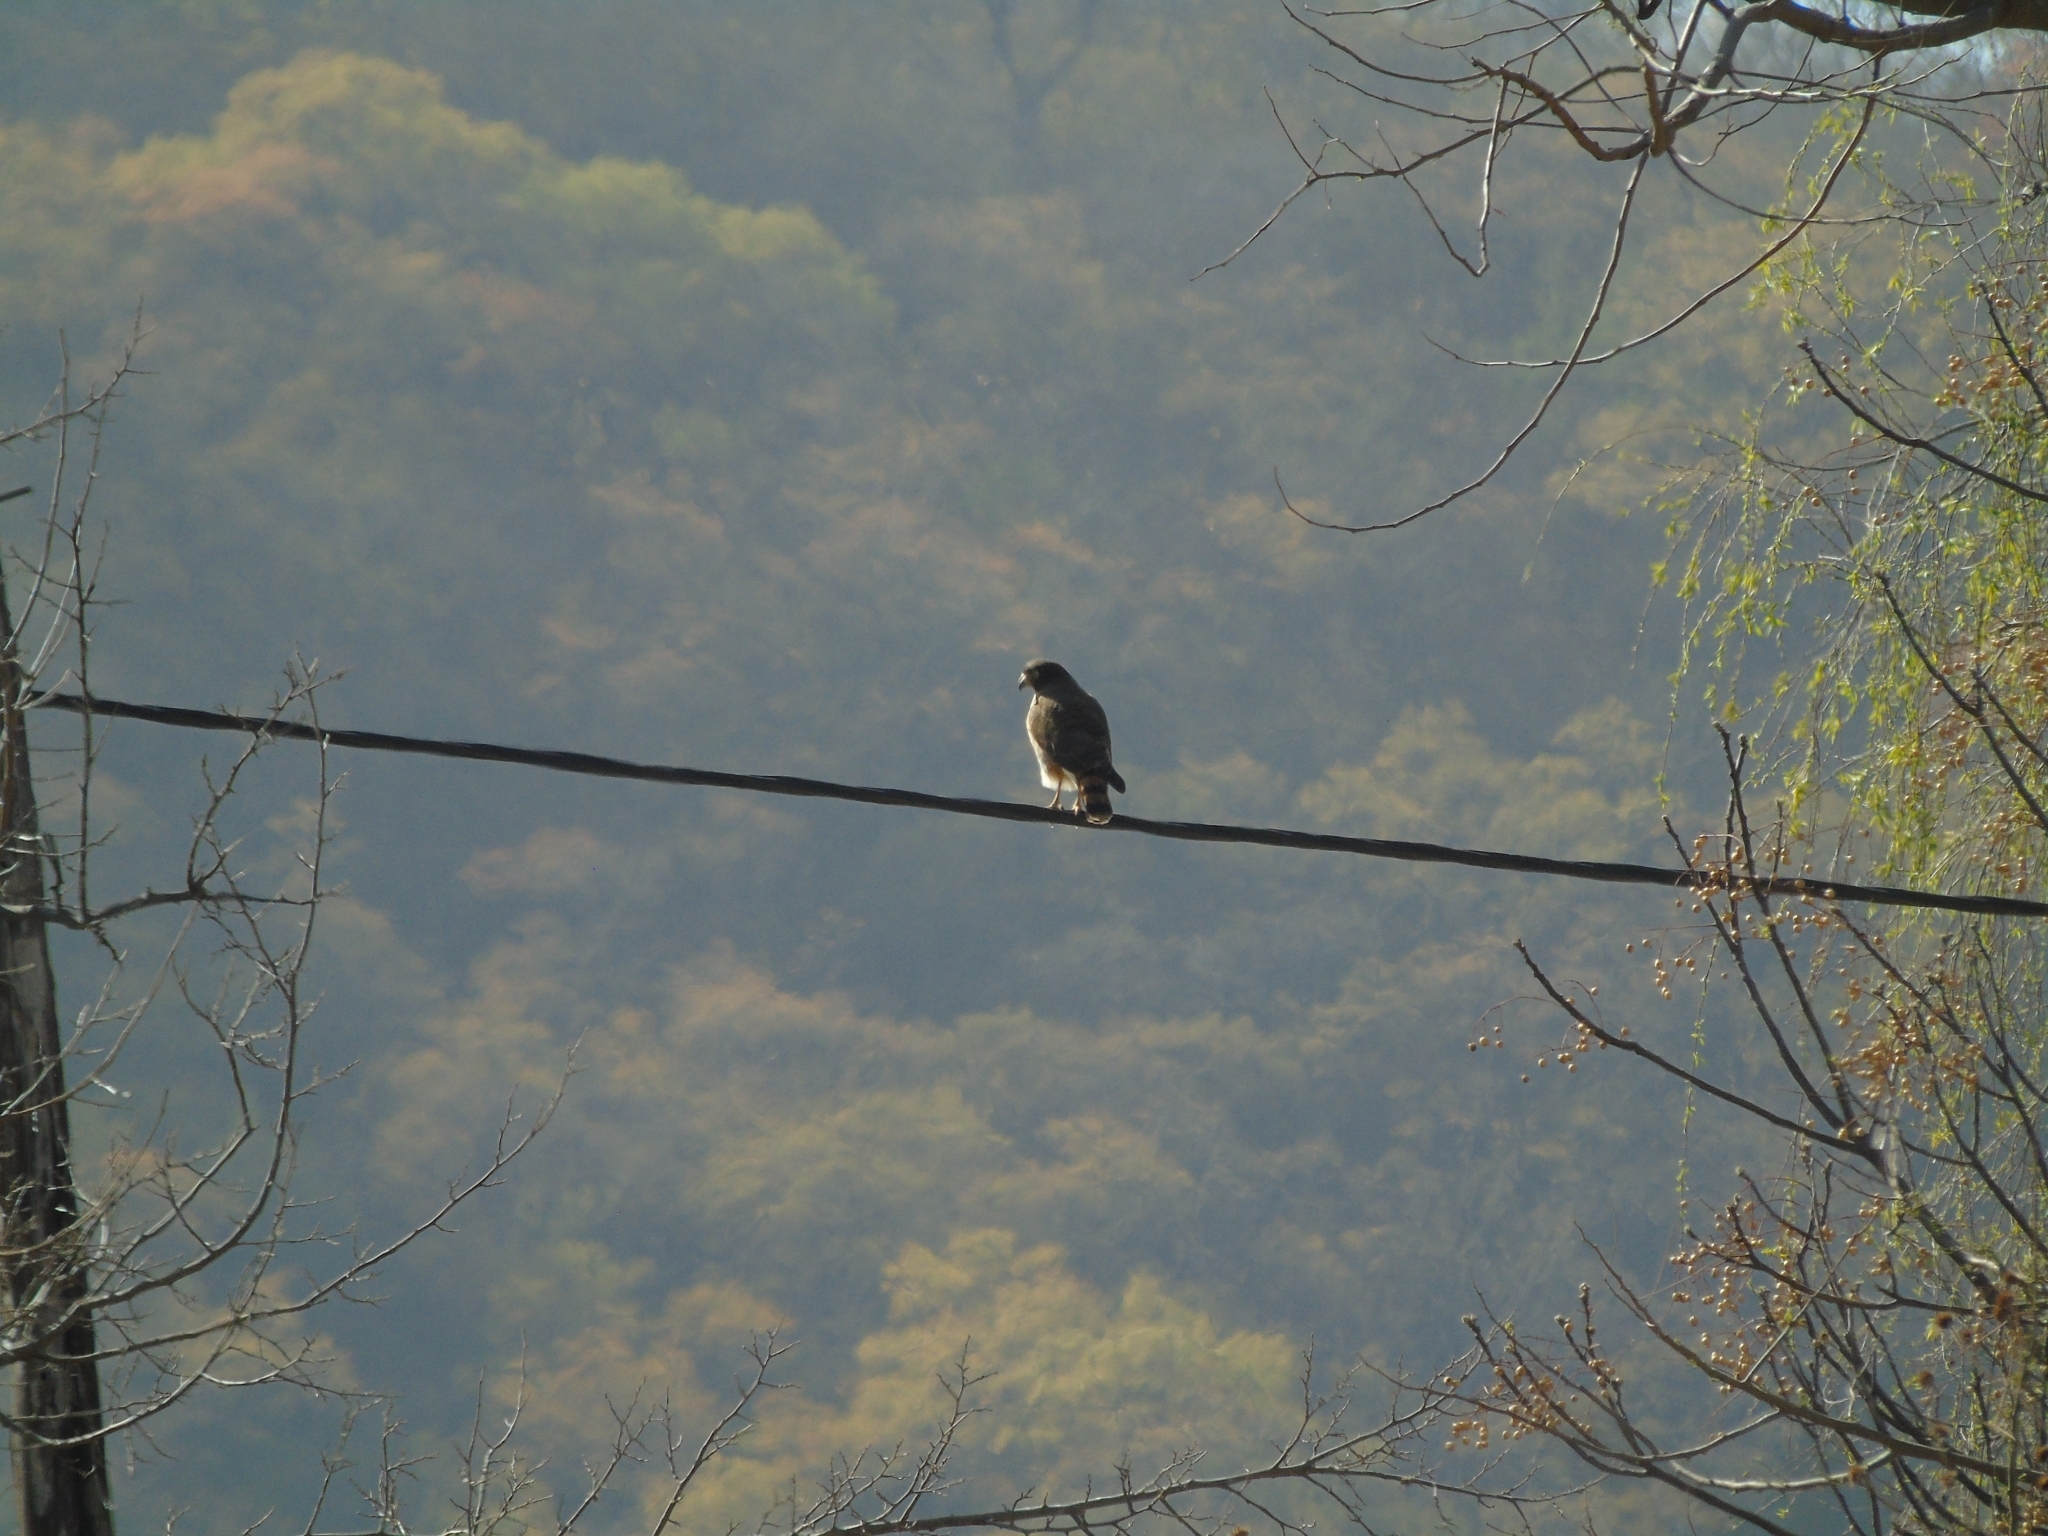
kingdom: Animalia
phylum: Chordata
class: Aves
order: Accipitriformes
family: Accipitridae
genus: Rupornis
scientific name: Rupornis magnirostris
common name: Roadside hawk
